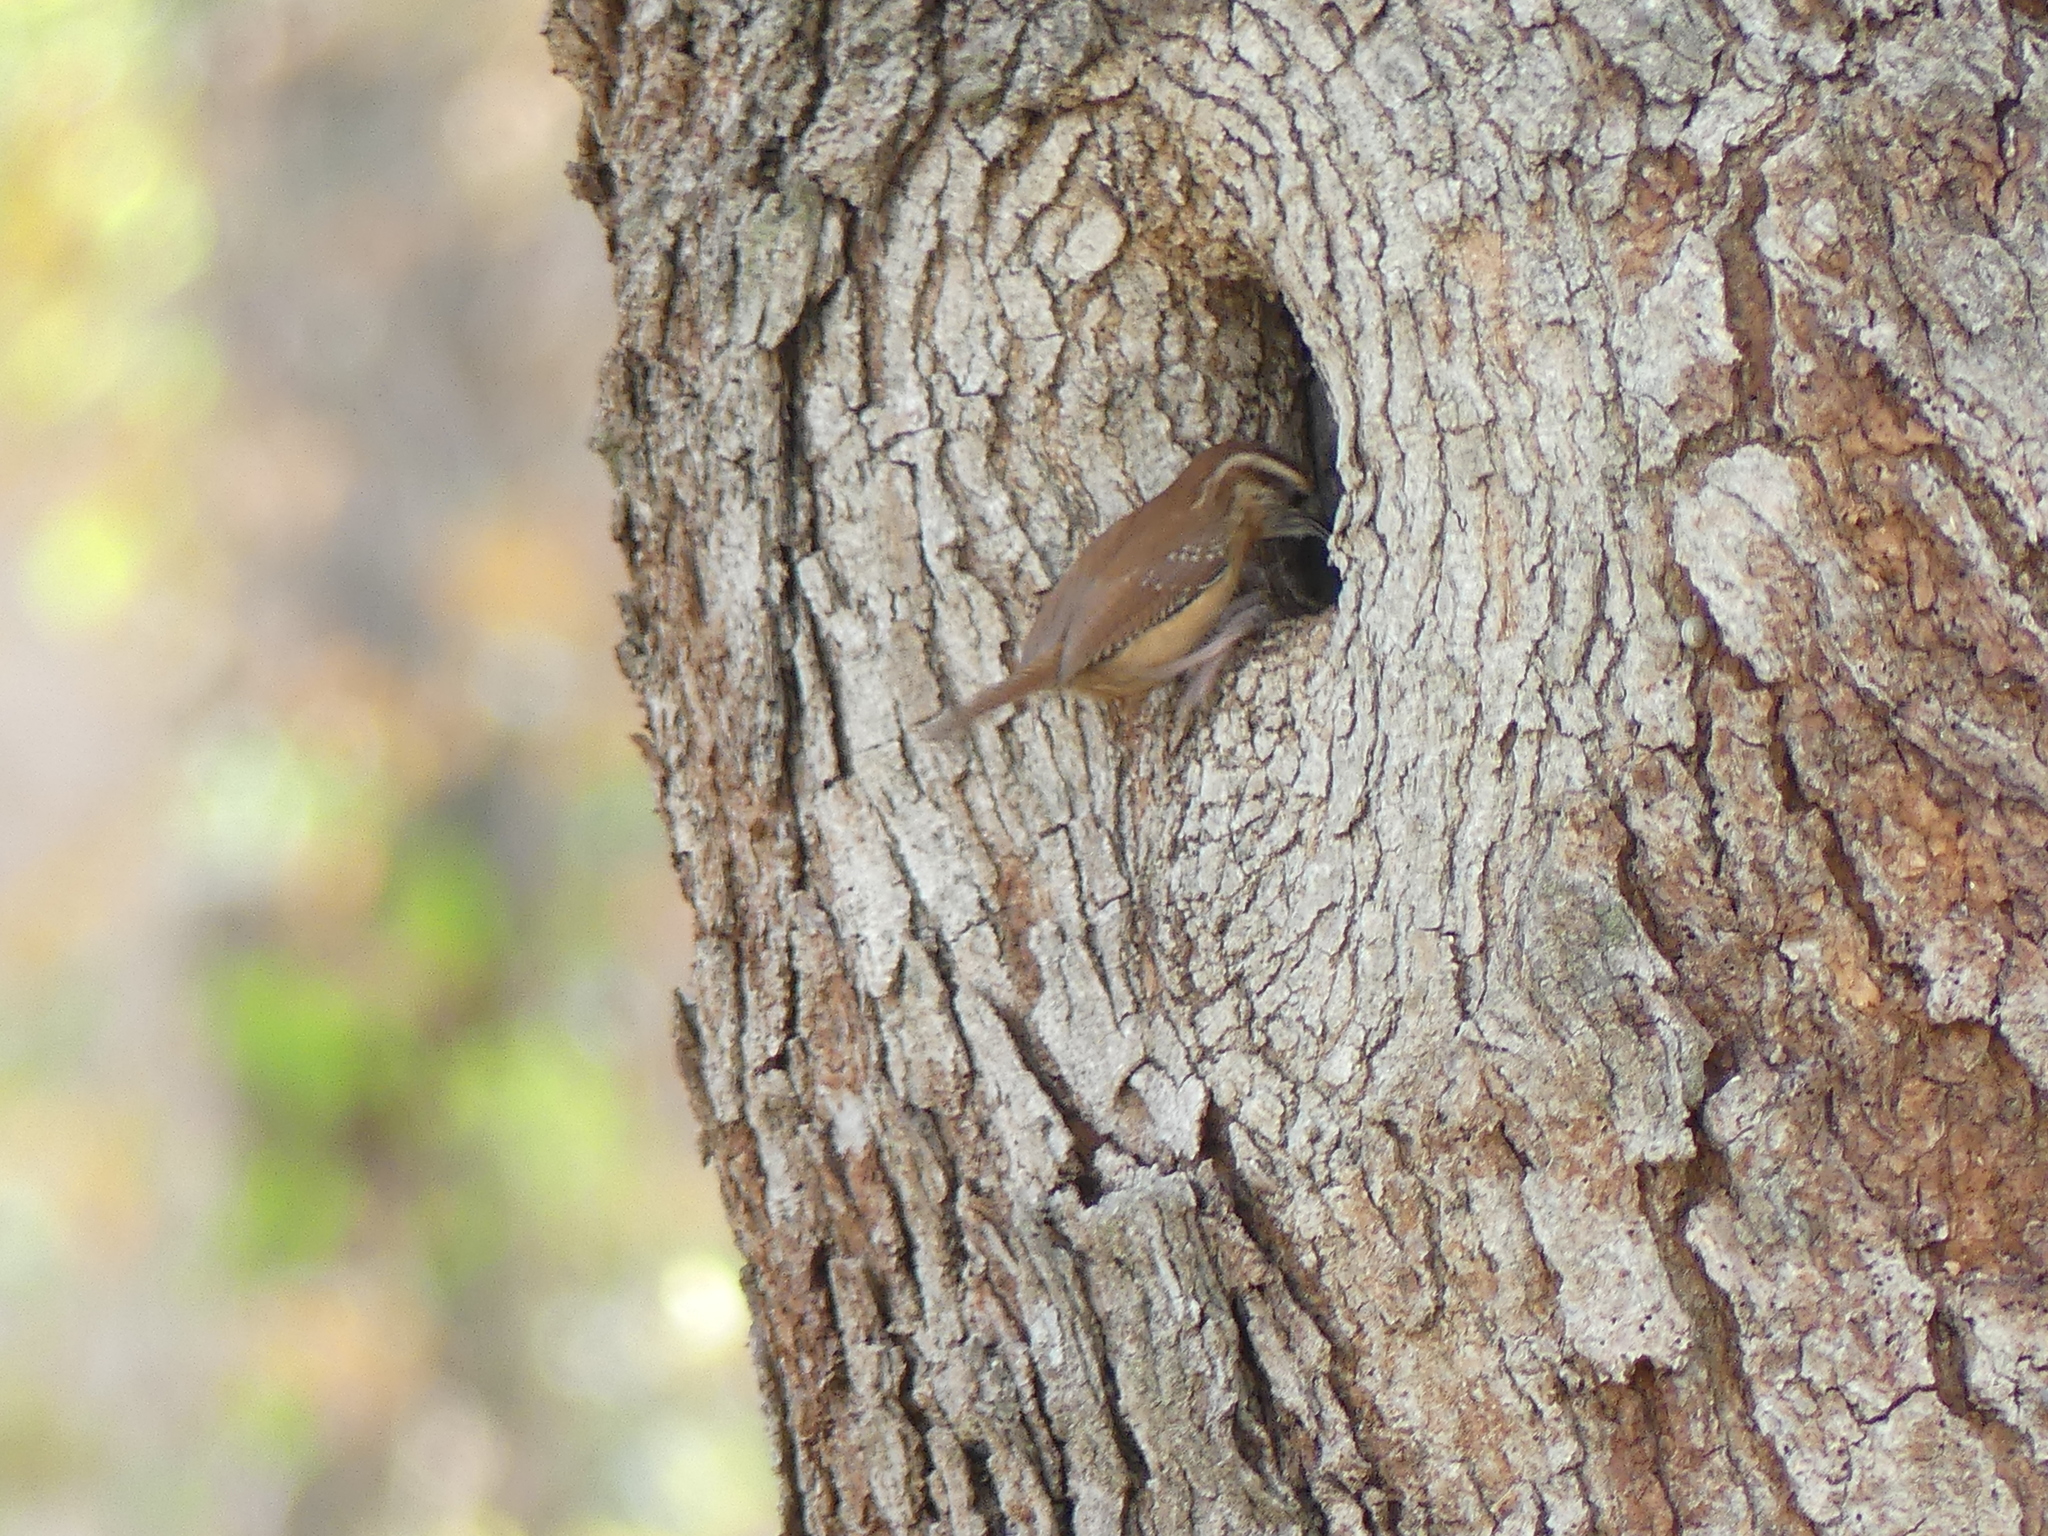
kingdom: Animalia
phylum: Chordata
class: Aves
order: Passeriformes
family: Troglodytidae
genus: Thryothorus
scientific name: Thryothorus ludovicianus
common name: Carolina wren
